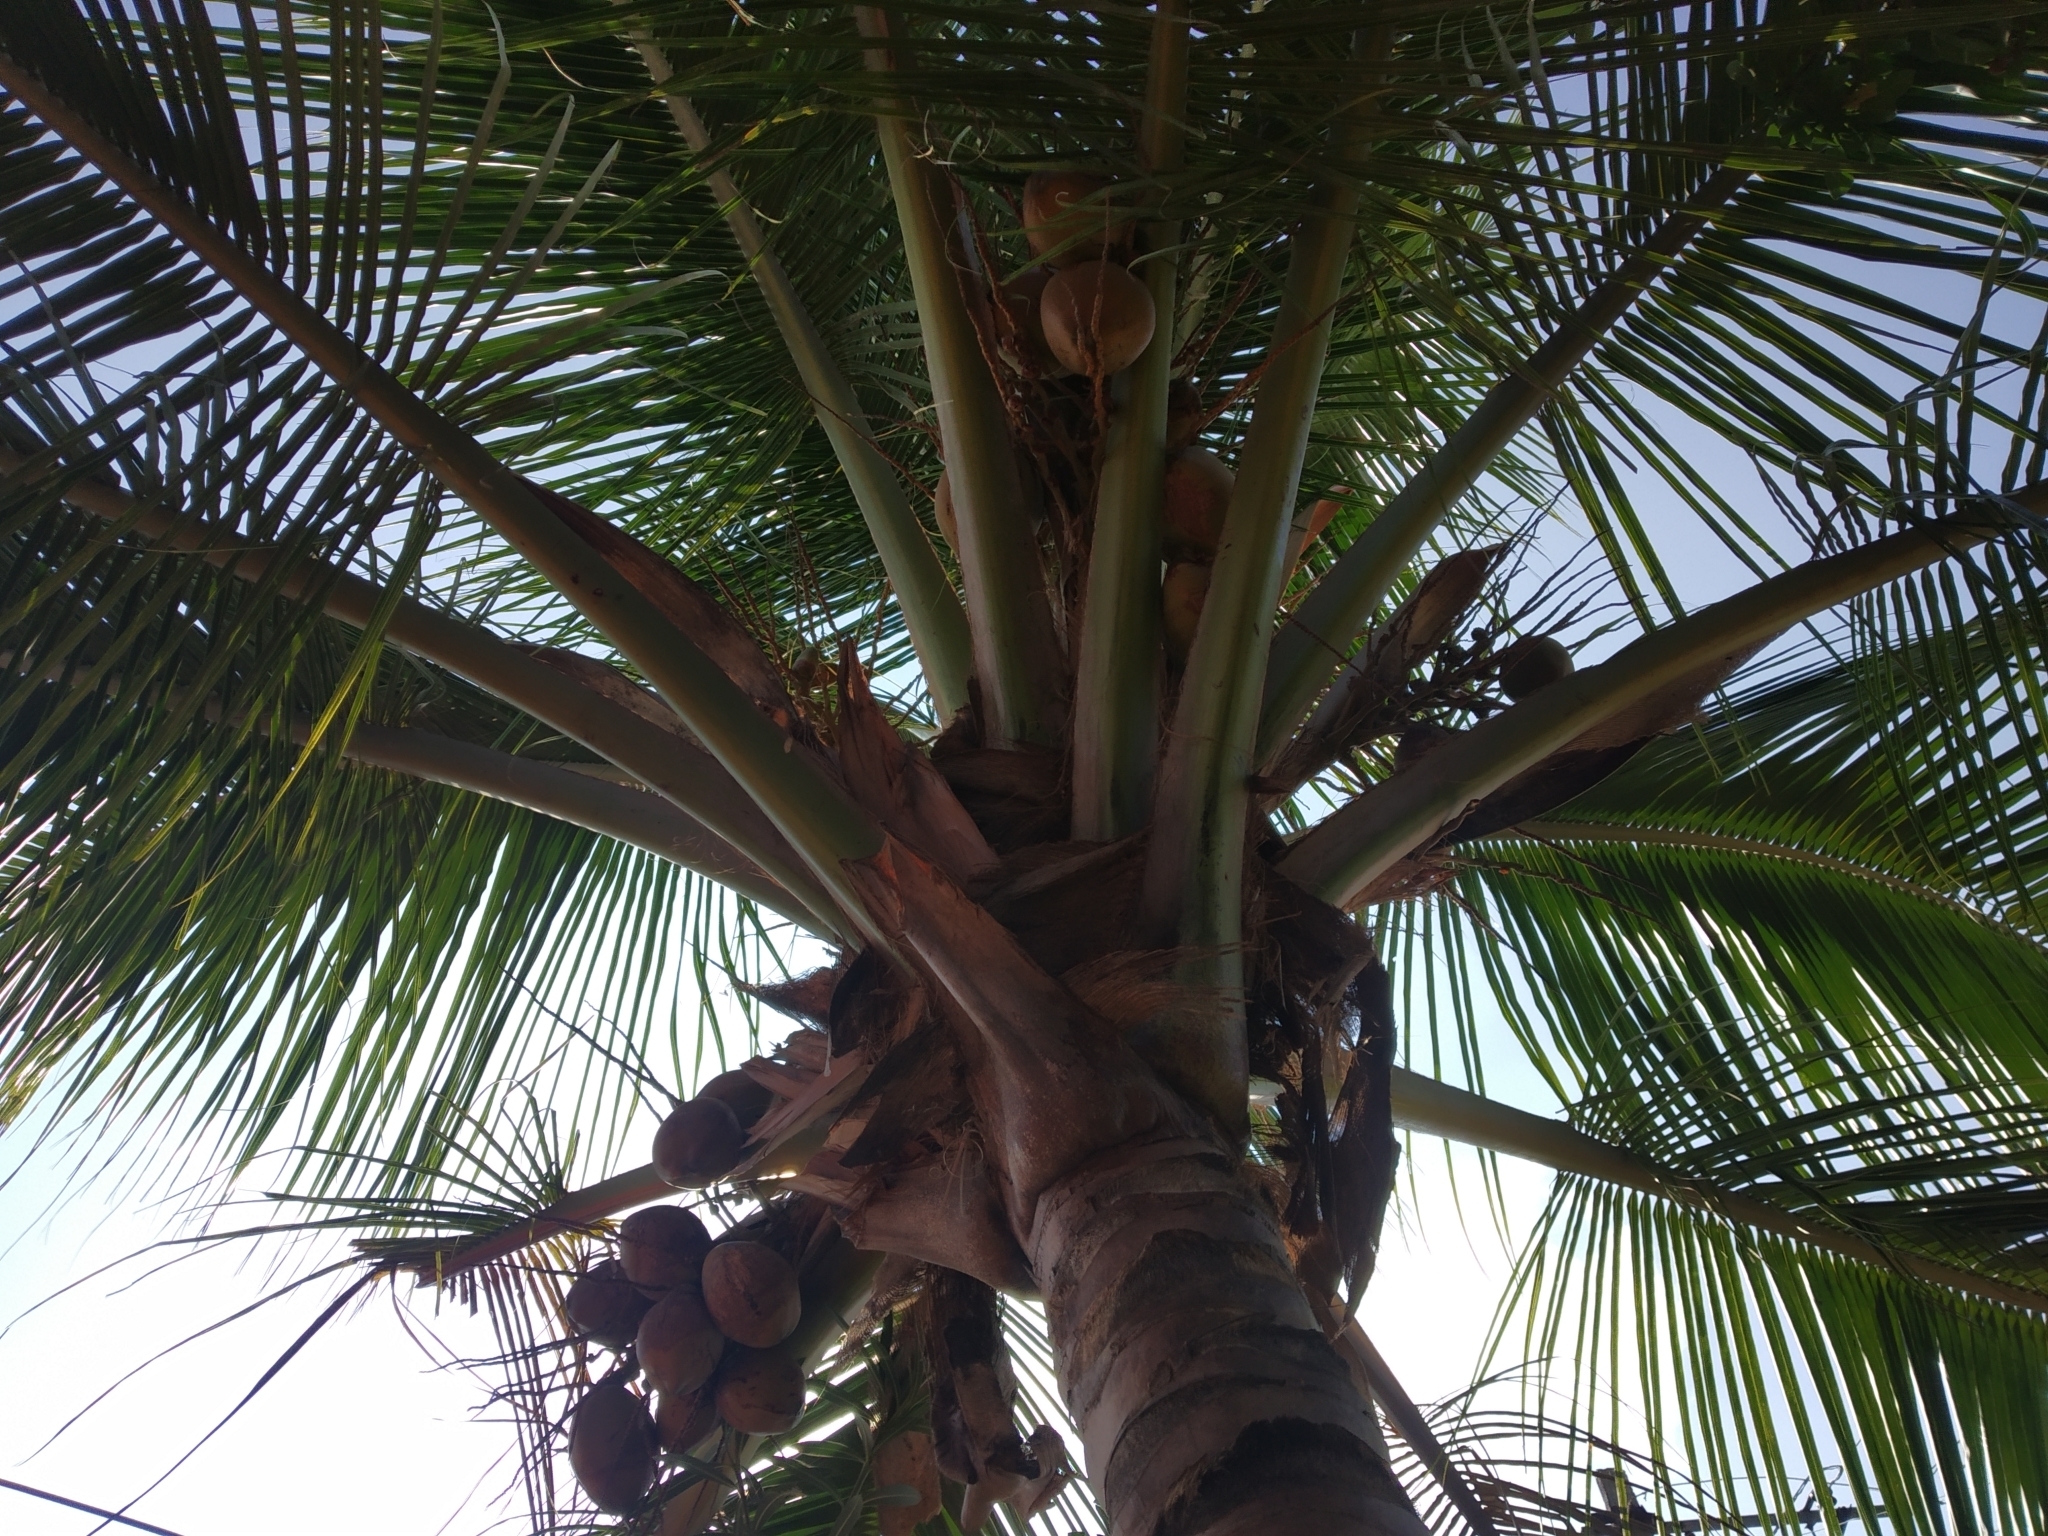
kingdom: Plantae
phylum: Tracheophyta
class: Liliopsida
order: Arecales
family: Arecaceae
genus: Cocos
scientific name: Cocos nucifera
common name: Coconut palm
